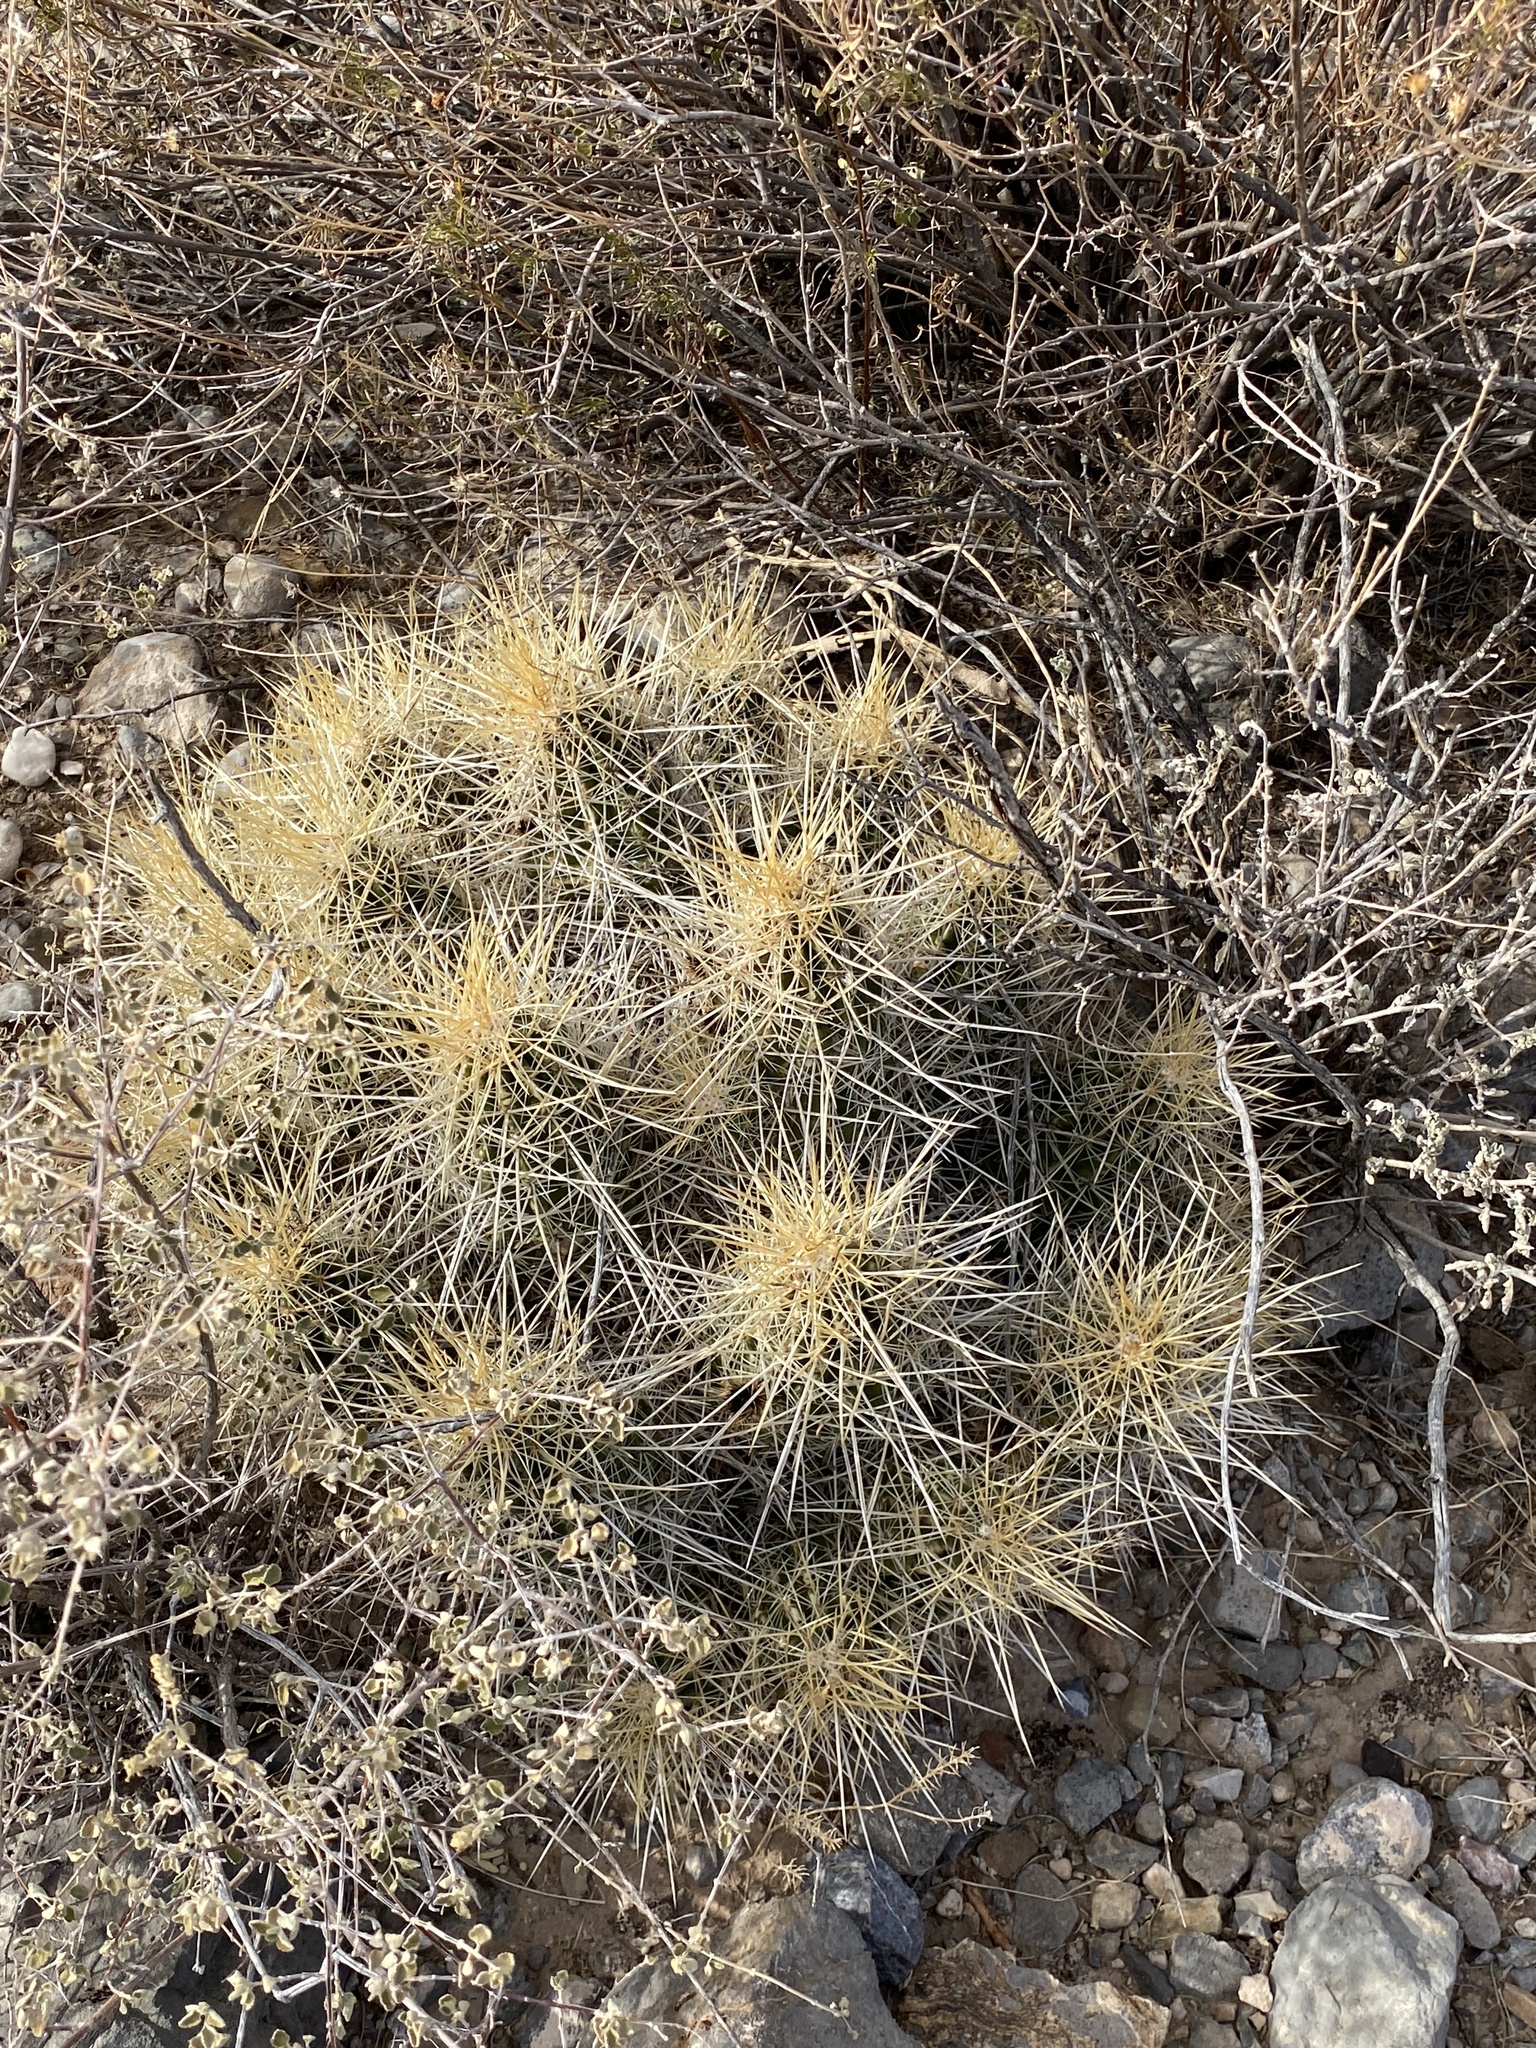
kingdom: Plantae
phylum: Tracheophyta
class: Magnoliopsida
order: Caryophyllales
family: Cactaceae
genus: Echinocereus
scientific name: Echinocereus stramineus
